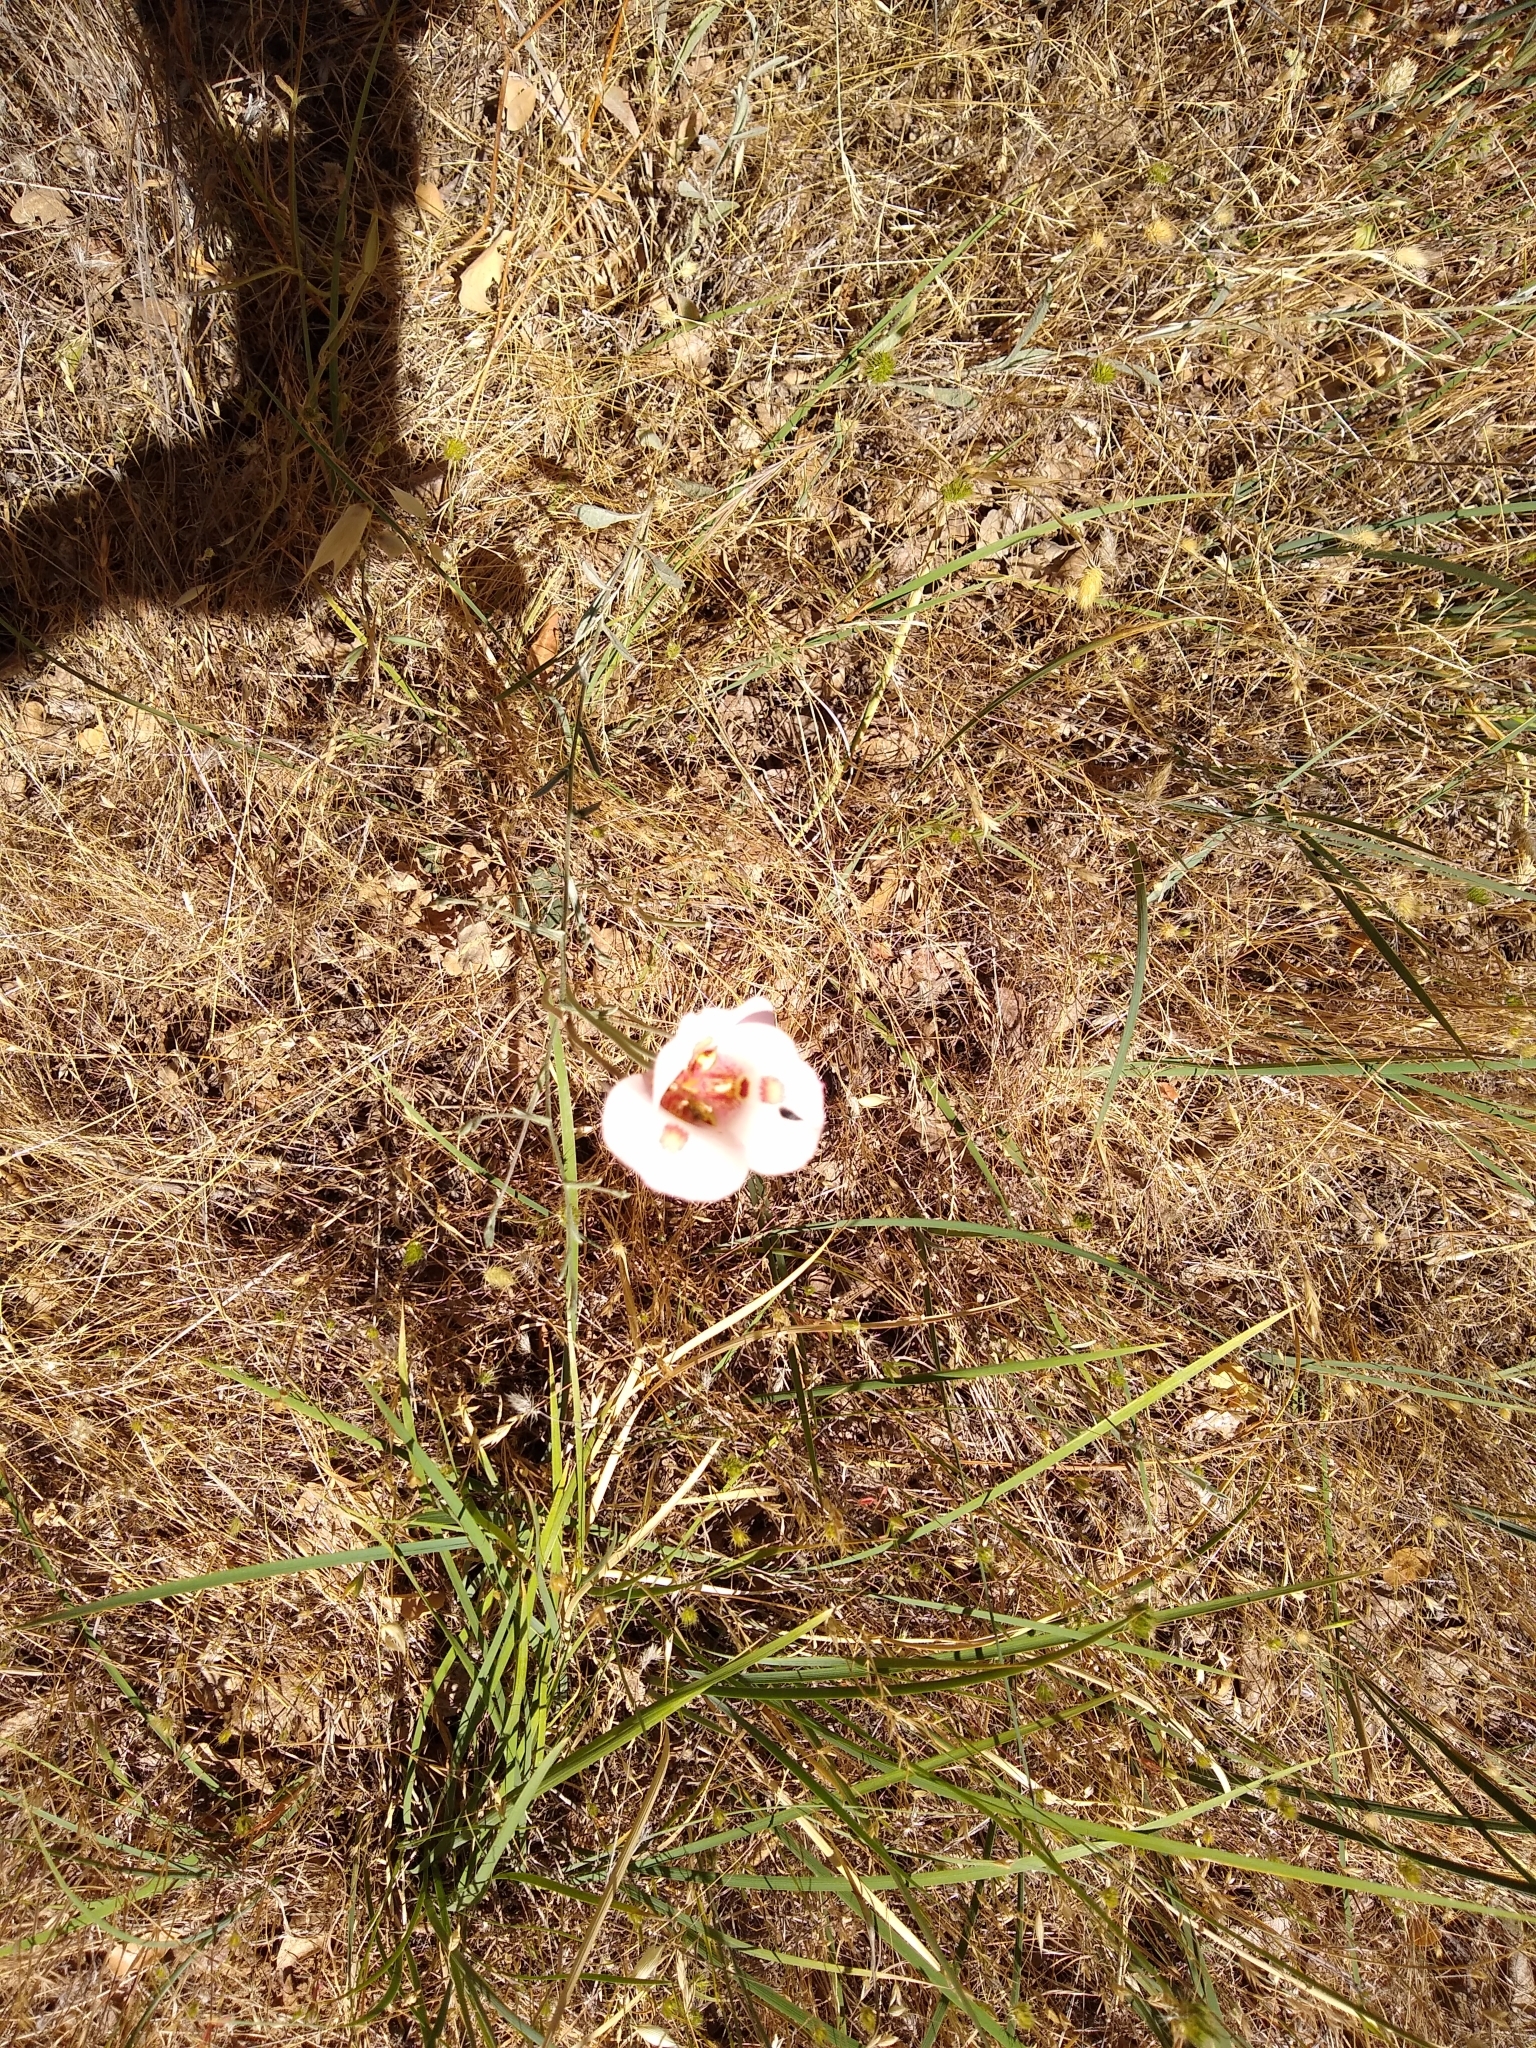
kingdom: Plantae
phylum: Tracheophyta
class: Liliopsida
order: Liliales
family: Liliaceae
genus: Calochortus
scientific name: Calochortus venustus
